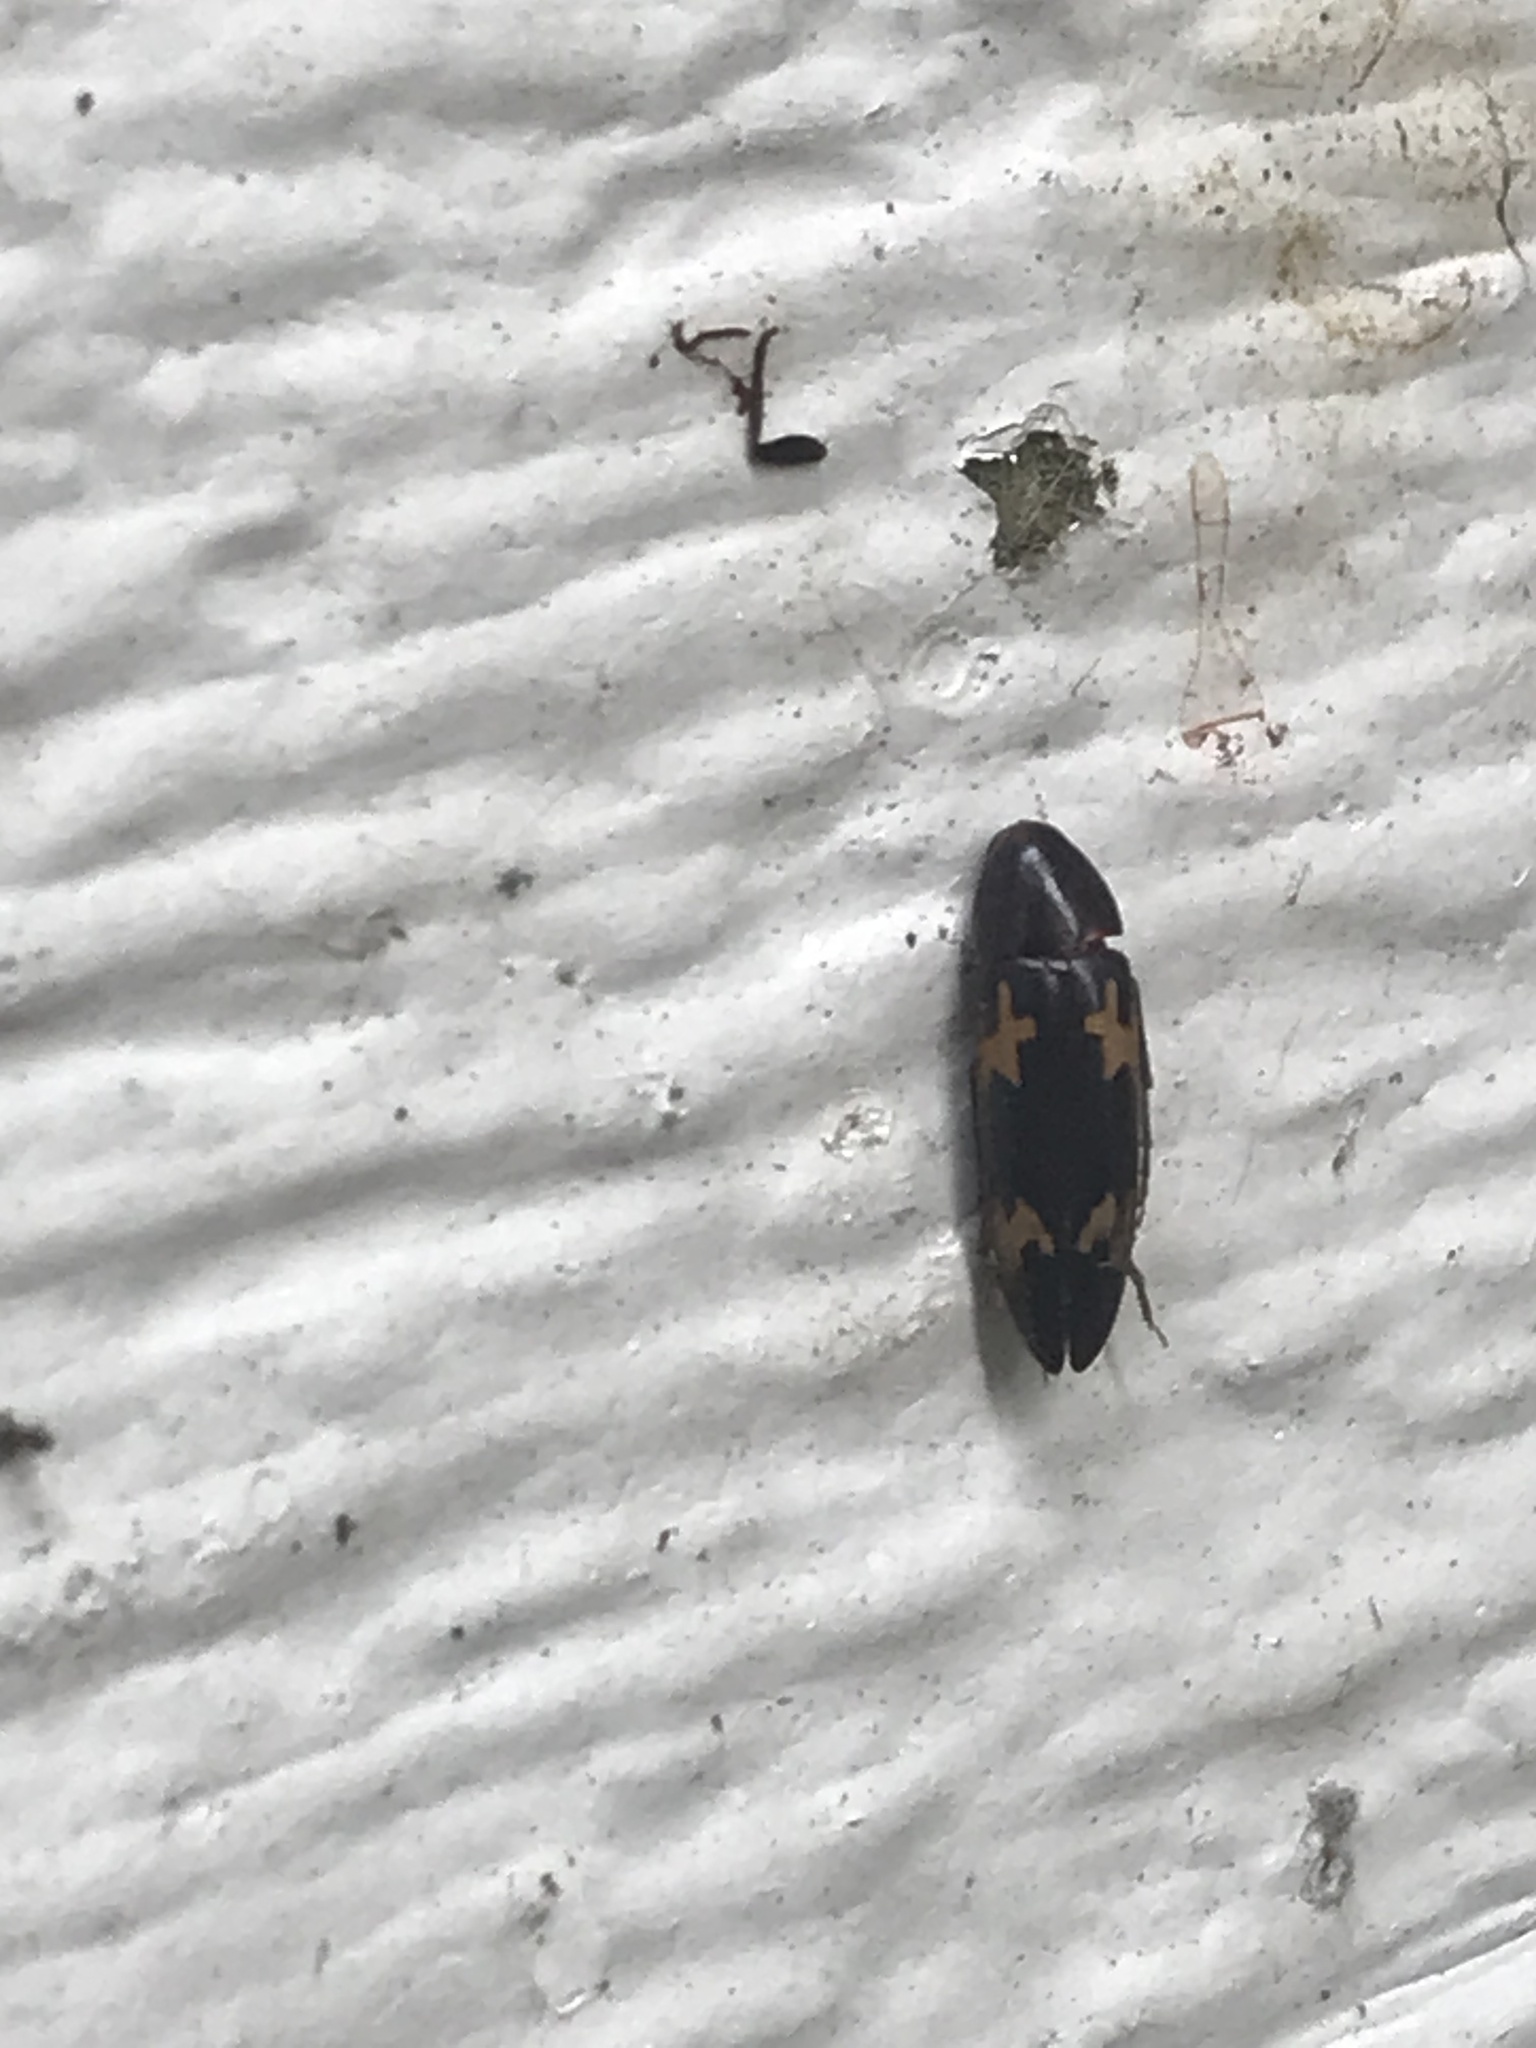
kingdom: Animalia
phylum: Arthropoda
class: Insecta
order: Coleoptera
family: Melandryidae
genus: Dircaea
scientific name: Dircaea liturata
